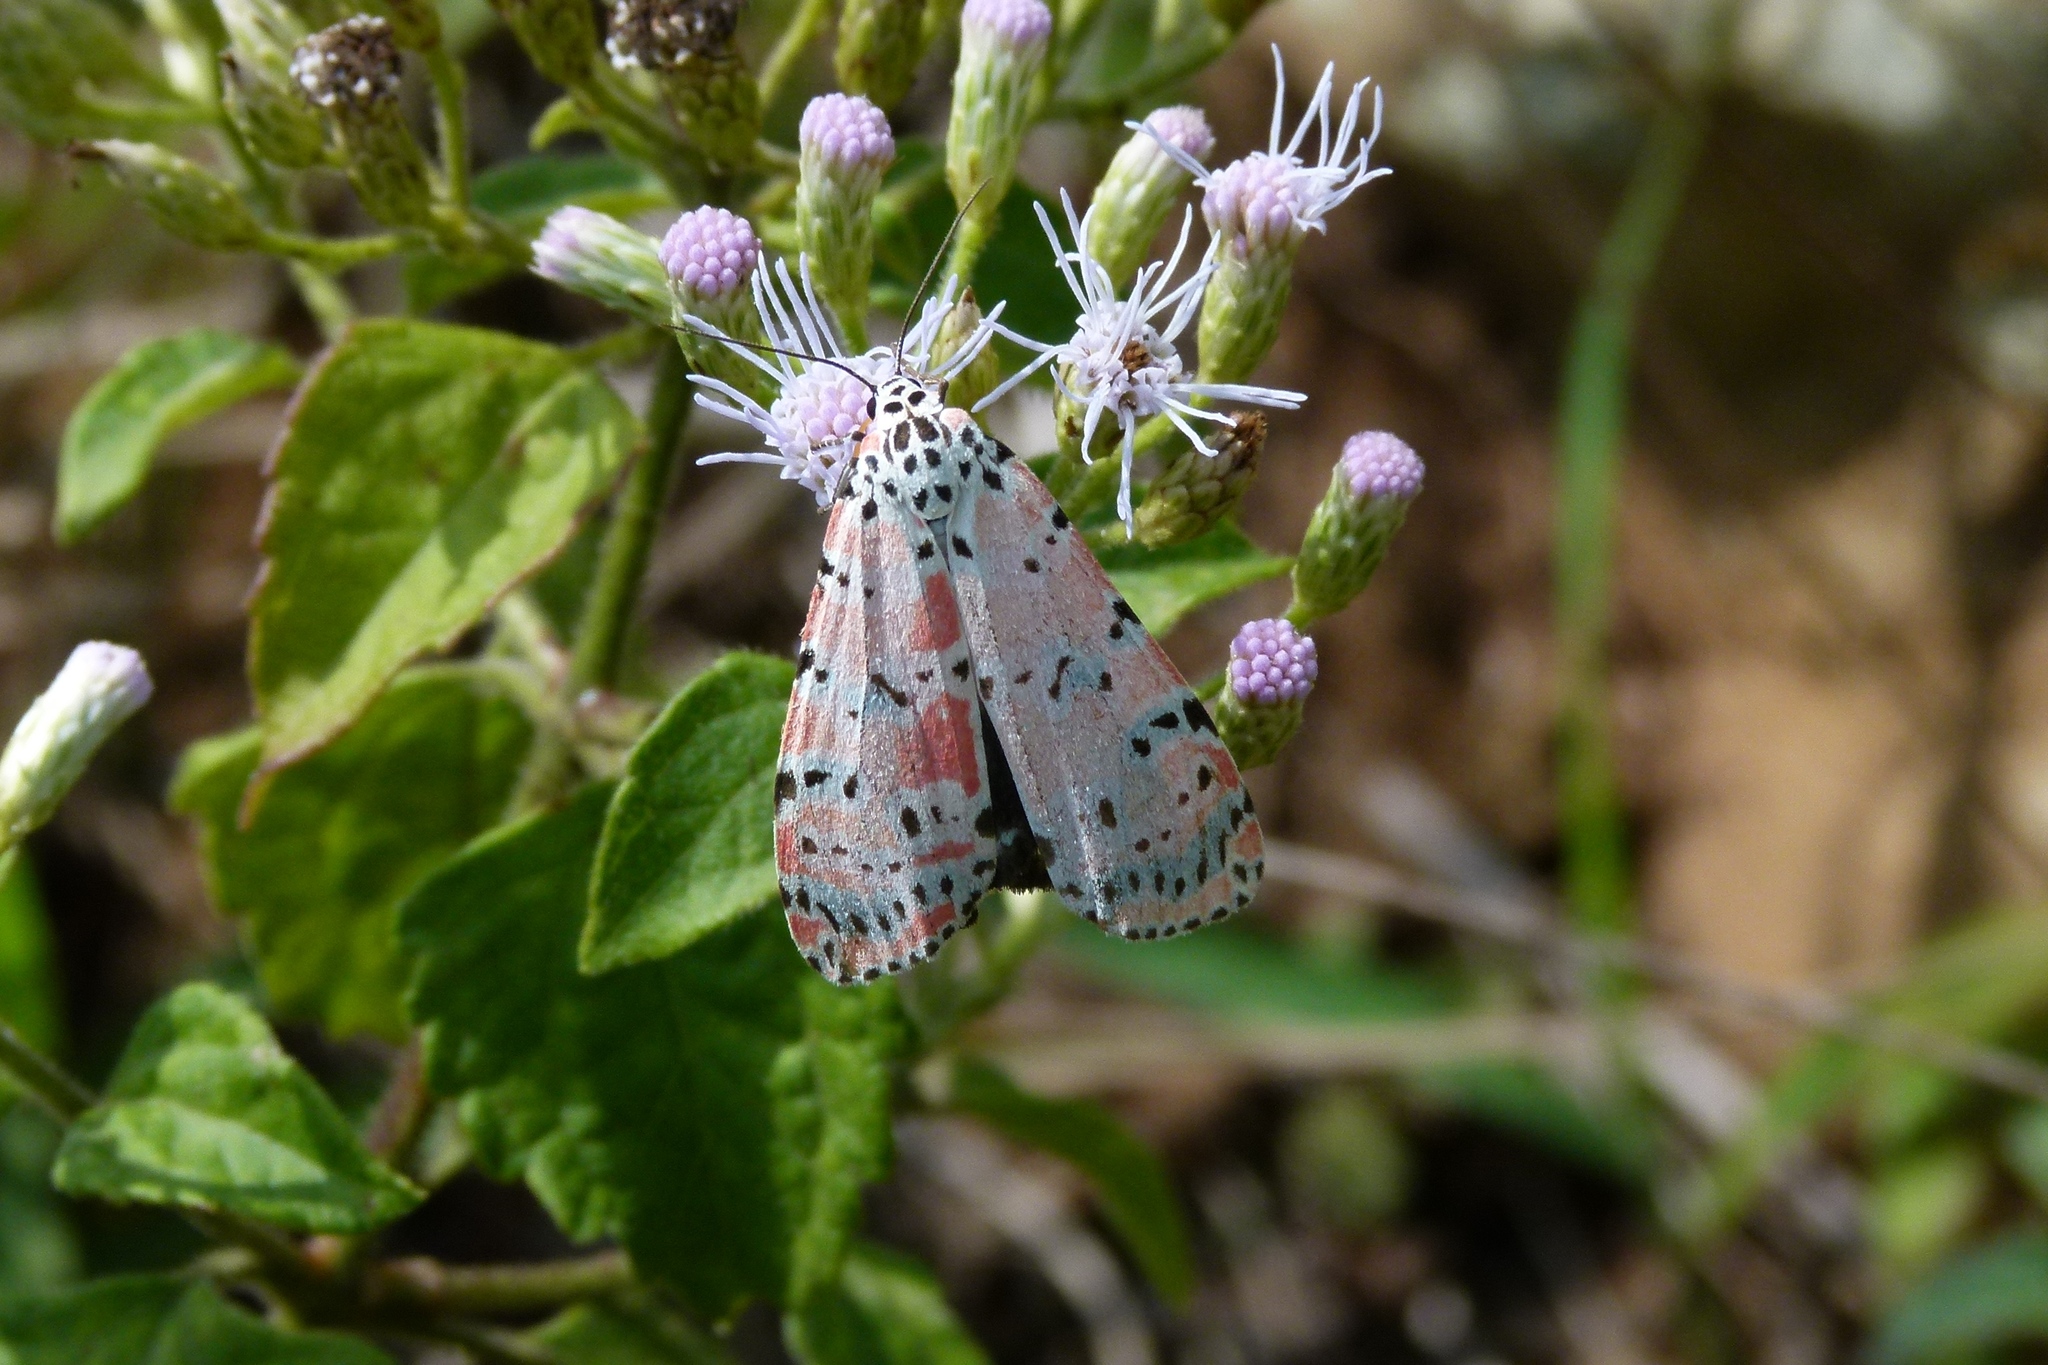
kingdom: Animalia
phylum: Arthropoda
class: Insecta
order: Lepidoptera
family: Erebidae
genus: Utetheisa
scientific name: Utetheisa ornatrix
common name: Beautiful utetheisa
